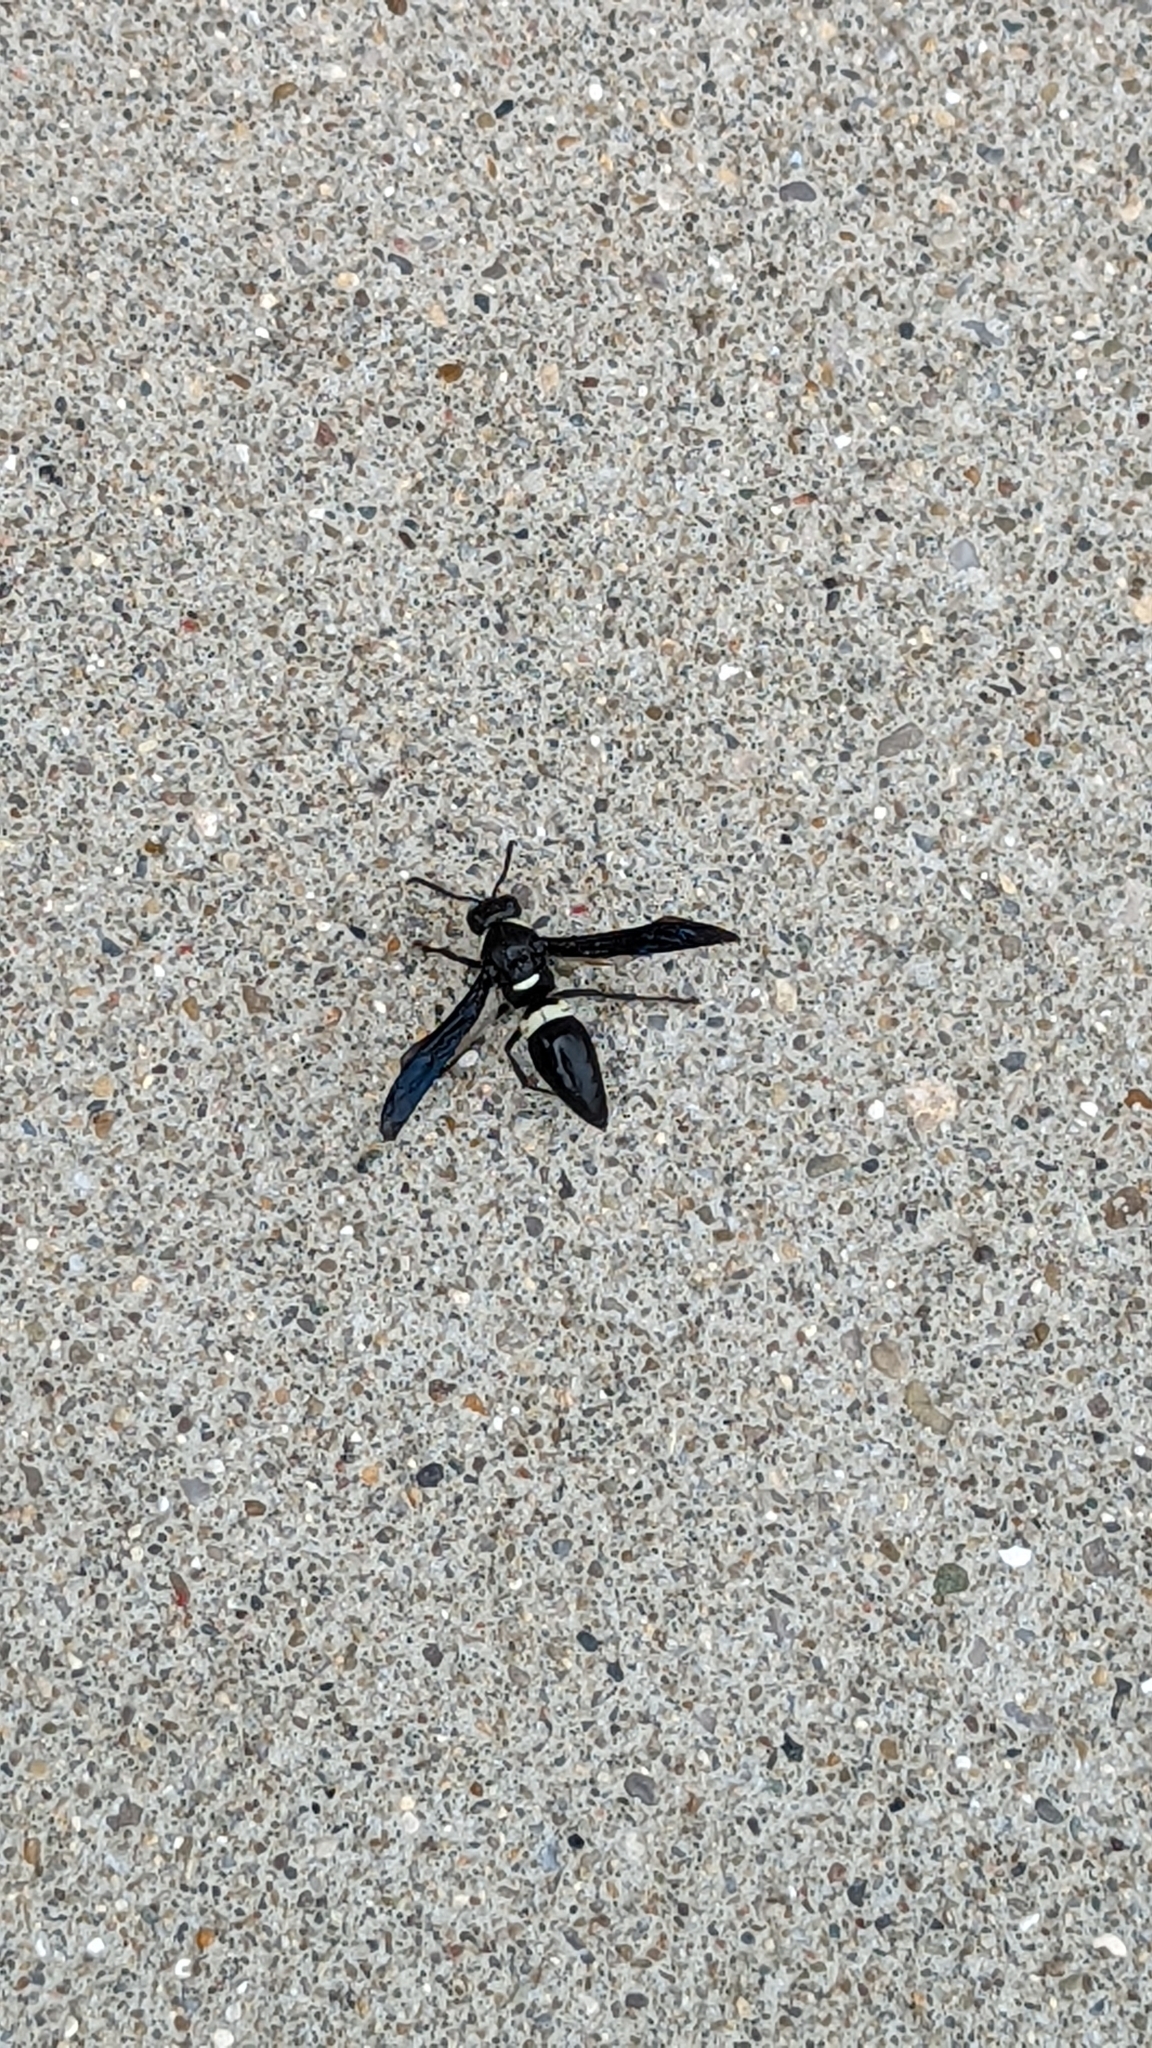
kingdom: Animalia
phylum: Arthropoda
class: Insecta
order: Hymenoptera
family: Eumenidae
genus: Monobia
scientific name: Monobia quadridens
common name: Four-toothed mason wasp
